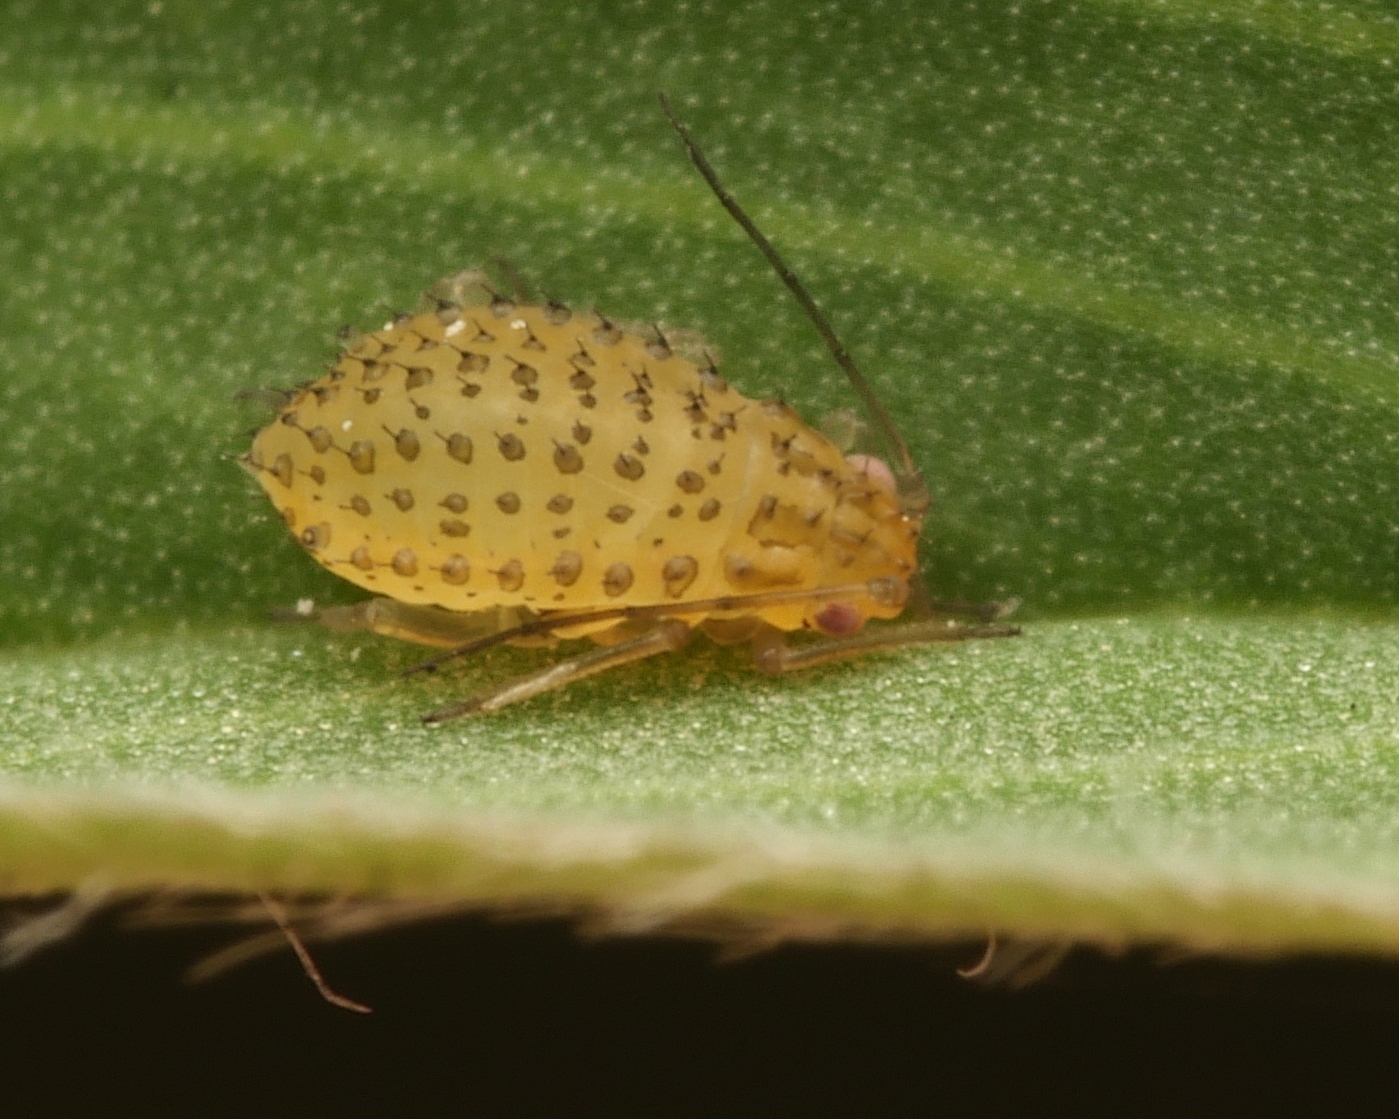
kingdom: Animalia
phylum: Arthropoda
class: Insecta
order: Hemiptera
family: Aphididae
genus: Therioaphis
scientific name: Therioaphis trifolii
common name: Spotted alfalfa aphid
